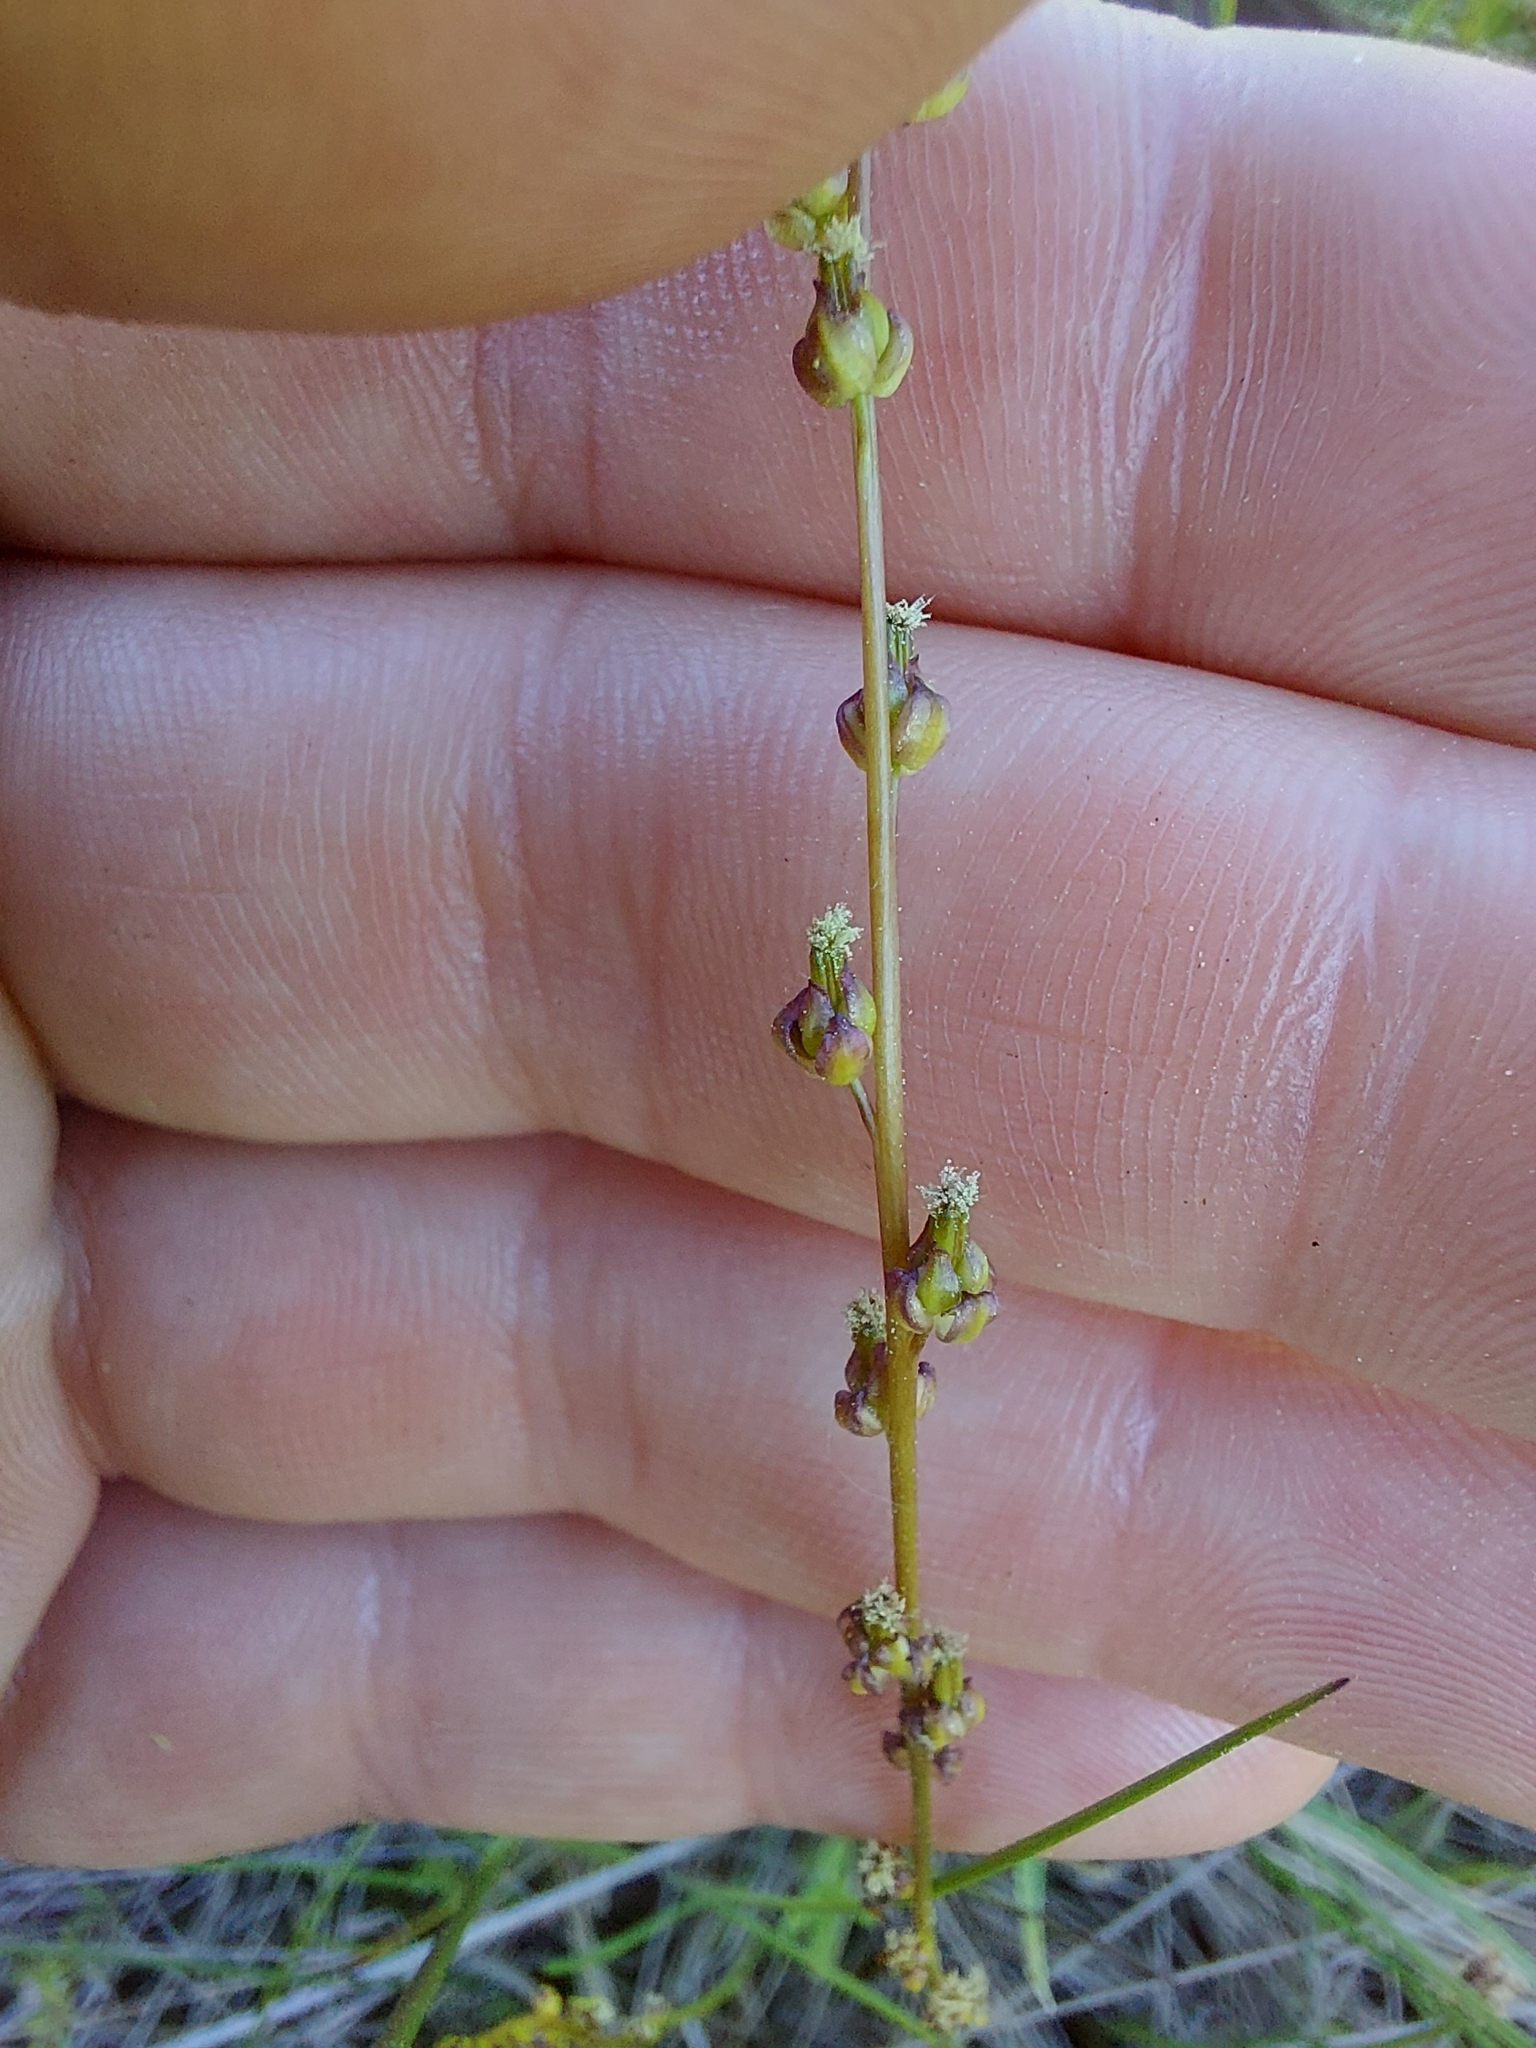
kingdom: Plantae
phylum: Tracheophyta
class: Liliopsida
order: Alismatales
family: Juncaginaceae
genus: Triglochin
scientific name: Triglochin palustris
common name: Marsh arrowgrass
